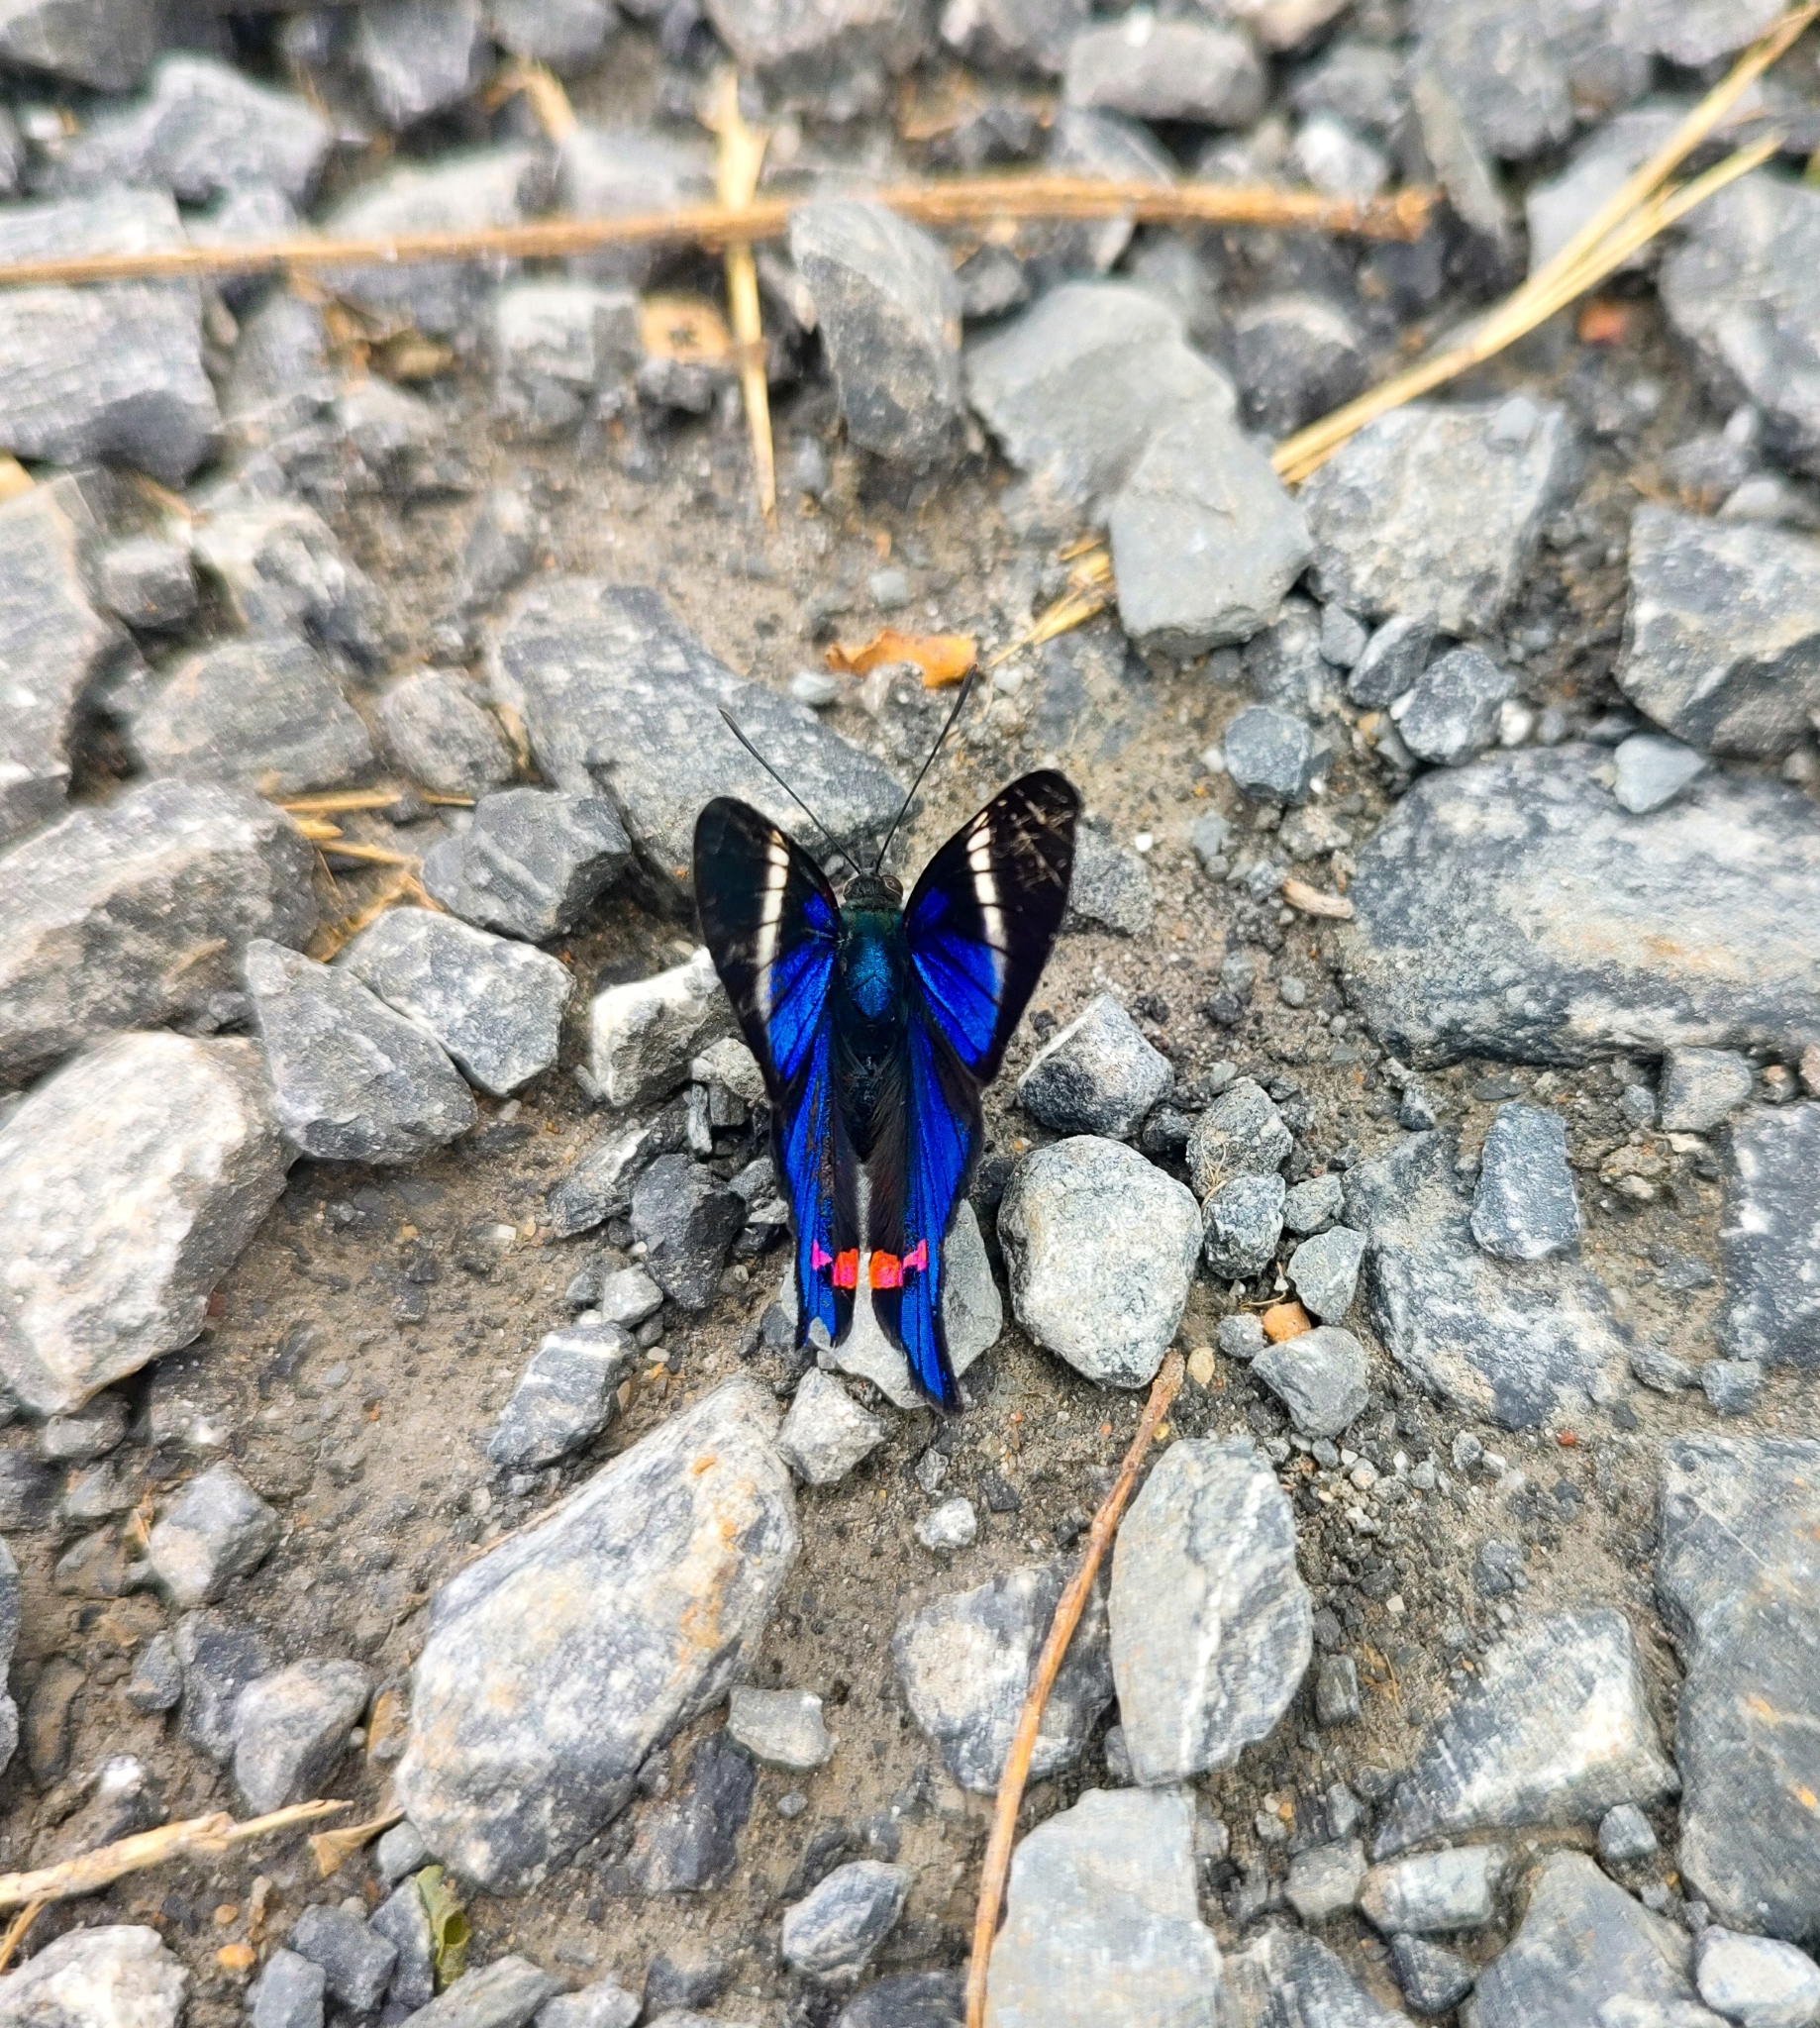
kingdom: Animalia
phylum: Arthropoda
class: Insecta
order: Lepidoptera
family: Riodinidae
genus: Rhetus
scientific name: Rhetus periander
